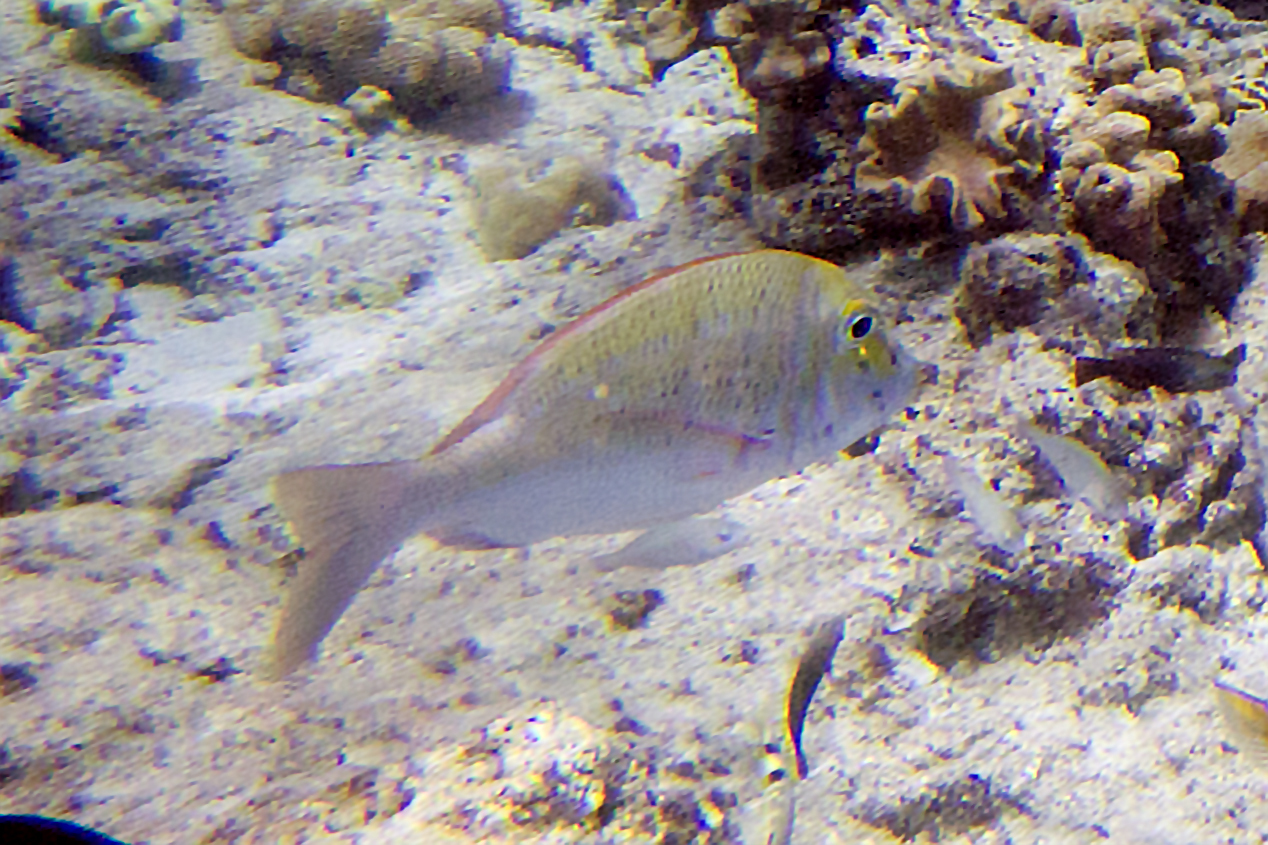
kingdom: Animalia
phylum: Chordata
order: Perciformes
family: Lethrinidae
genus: Lethrinus
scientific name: Lethrinus harak
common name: Blackspot emperor
